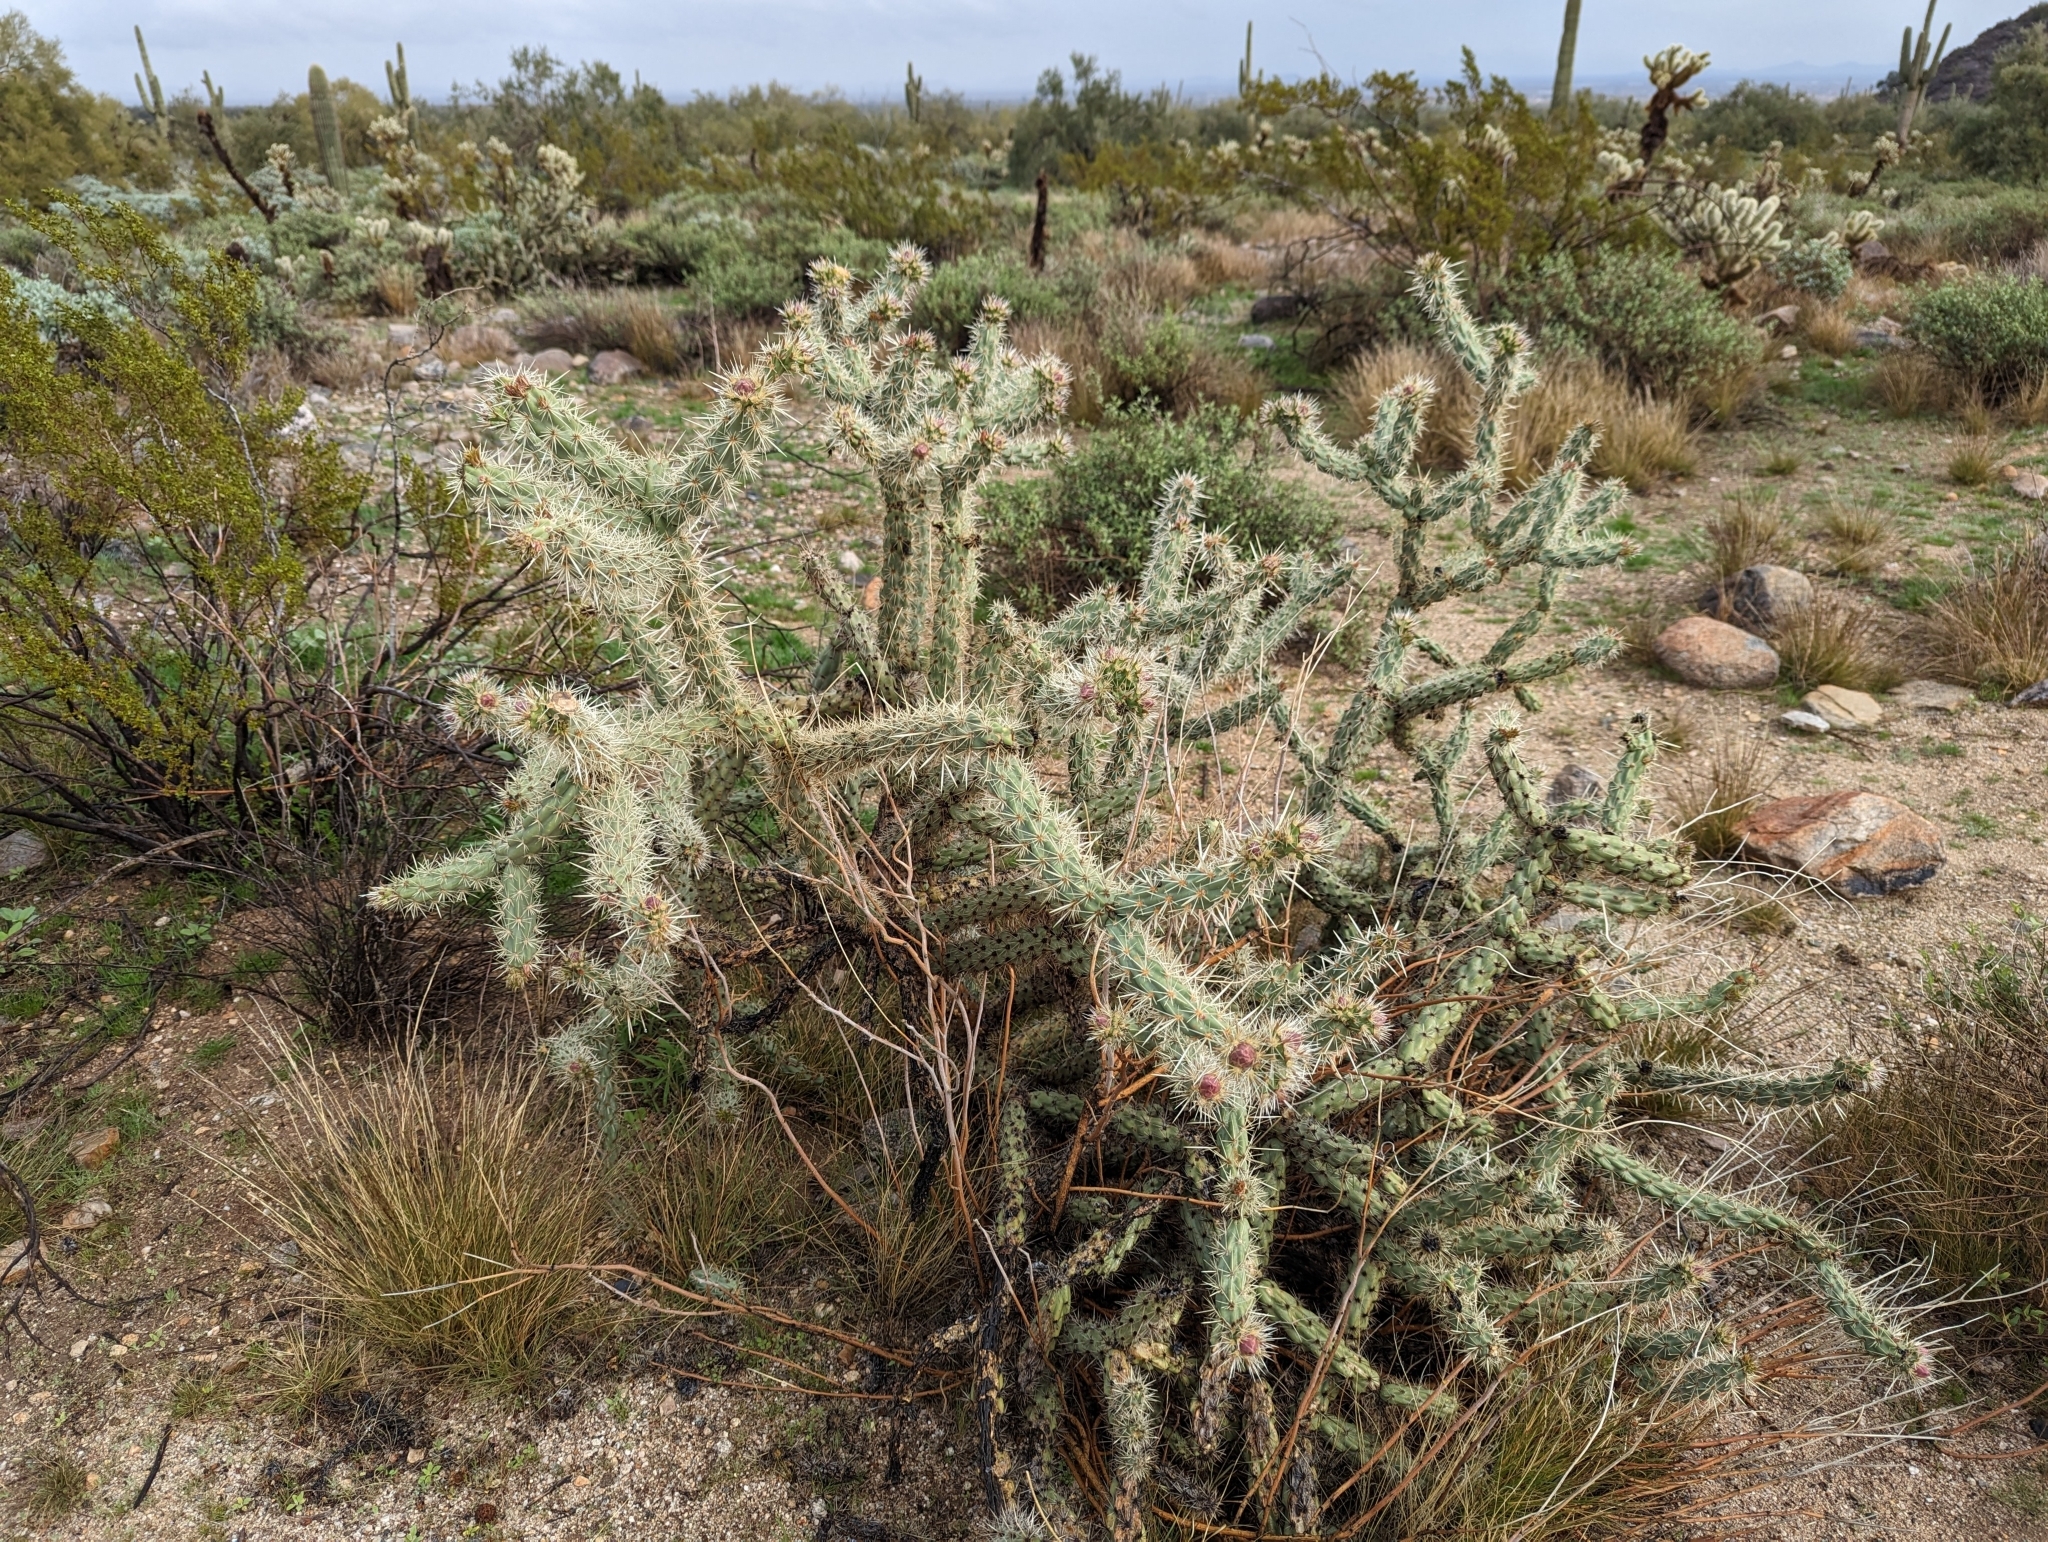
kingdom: Plantae
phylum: Tracheophyta
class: Magnoliopsida
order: Caryophyllales
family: Cactaceae
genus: Cylindropuntia
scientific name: Cylindropuntia acanthocarpa
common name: Buckhorn cholla
